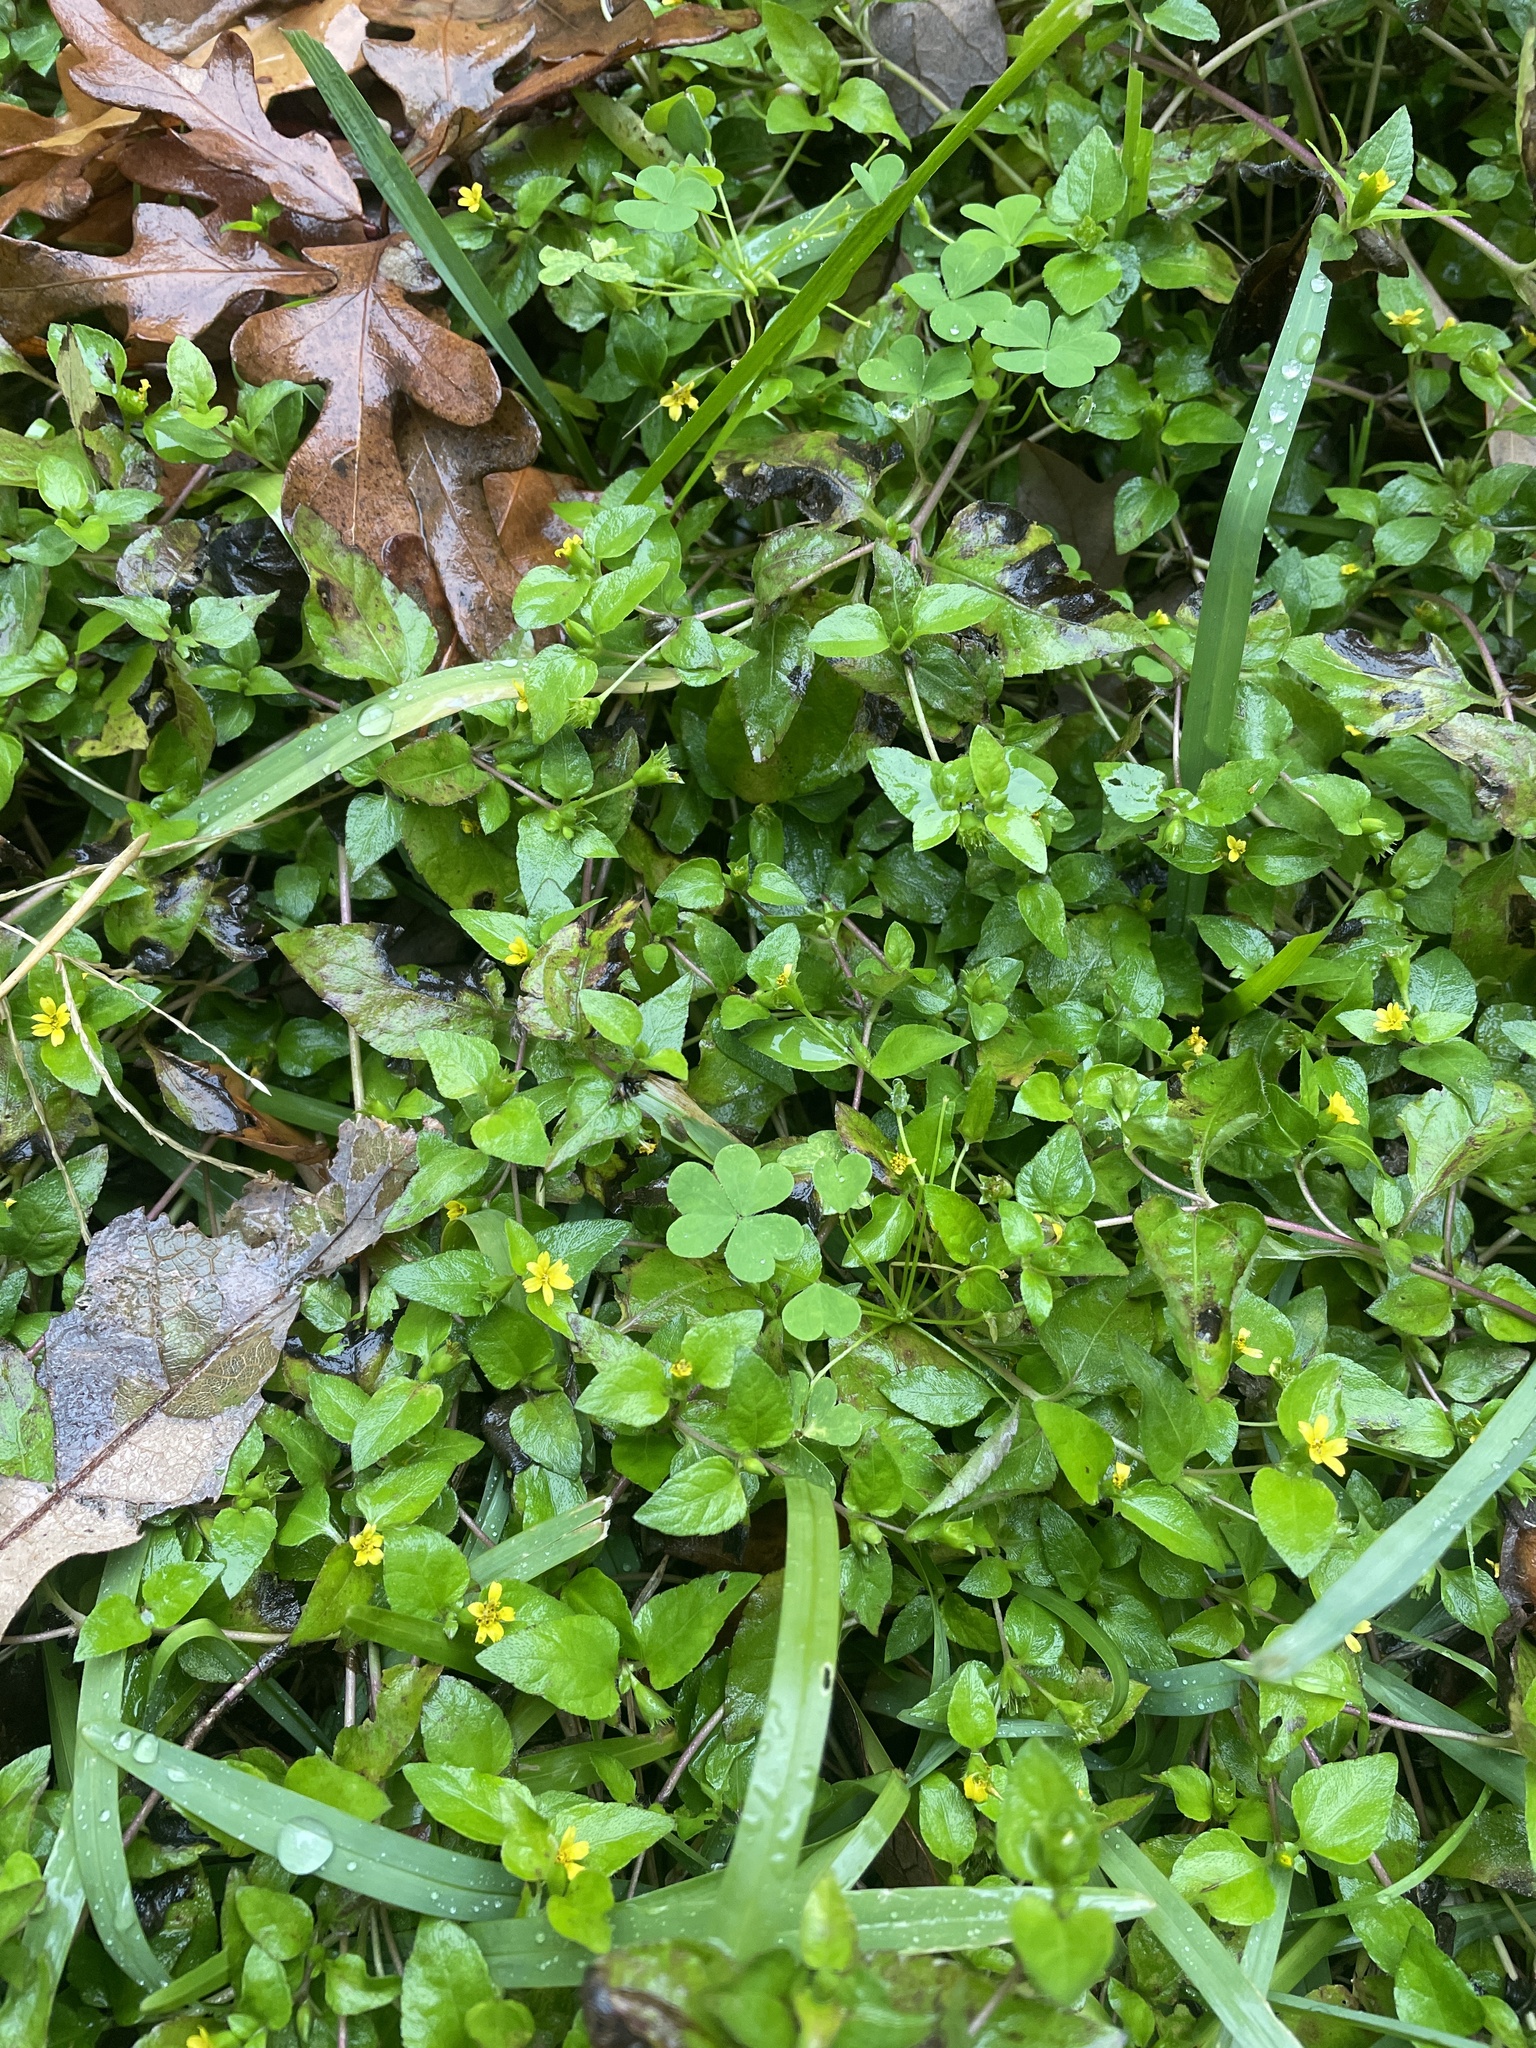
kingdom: Plantae
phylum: Tracheophyta
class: Magnoliopsida
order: Asterales
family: Asteraceae
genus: Calyptocarpus
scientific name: Calyptocarpus vialis
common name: Straggler daisy
